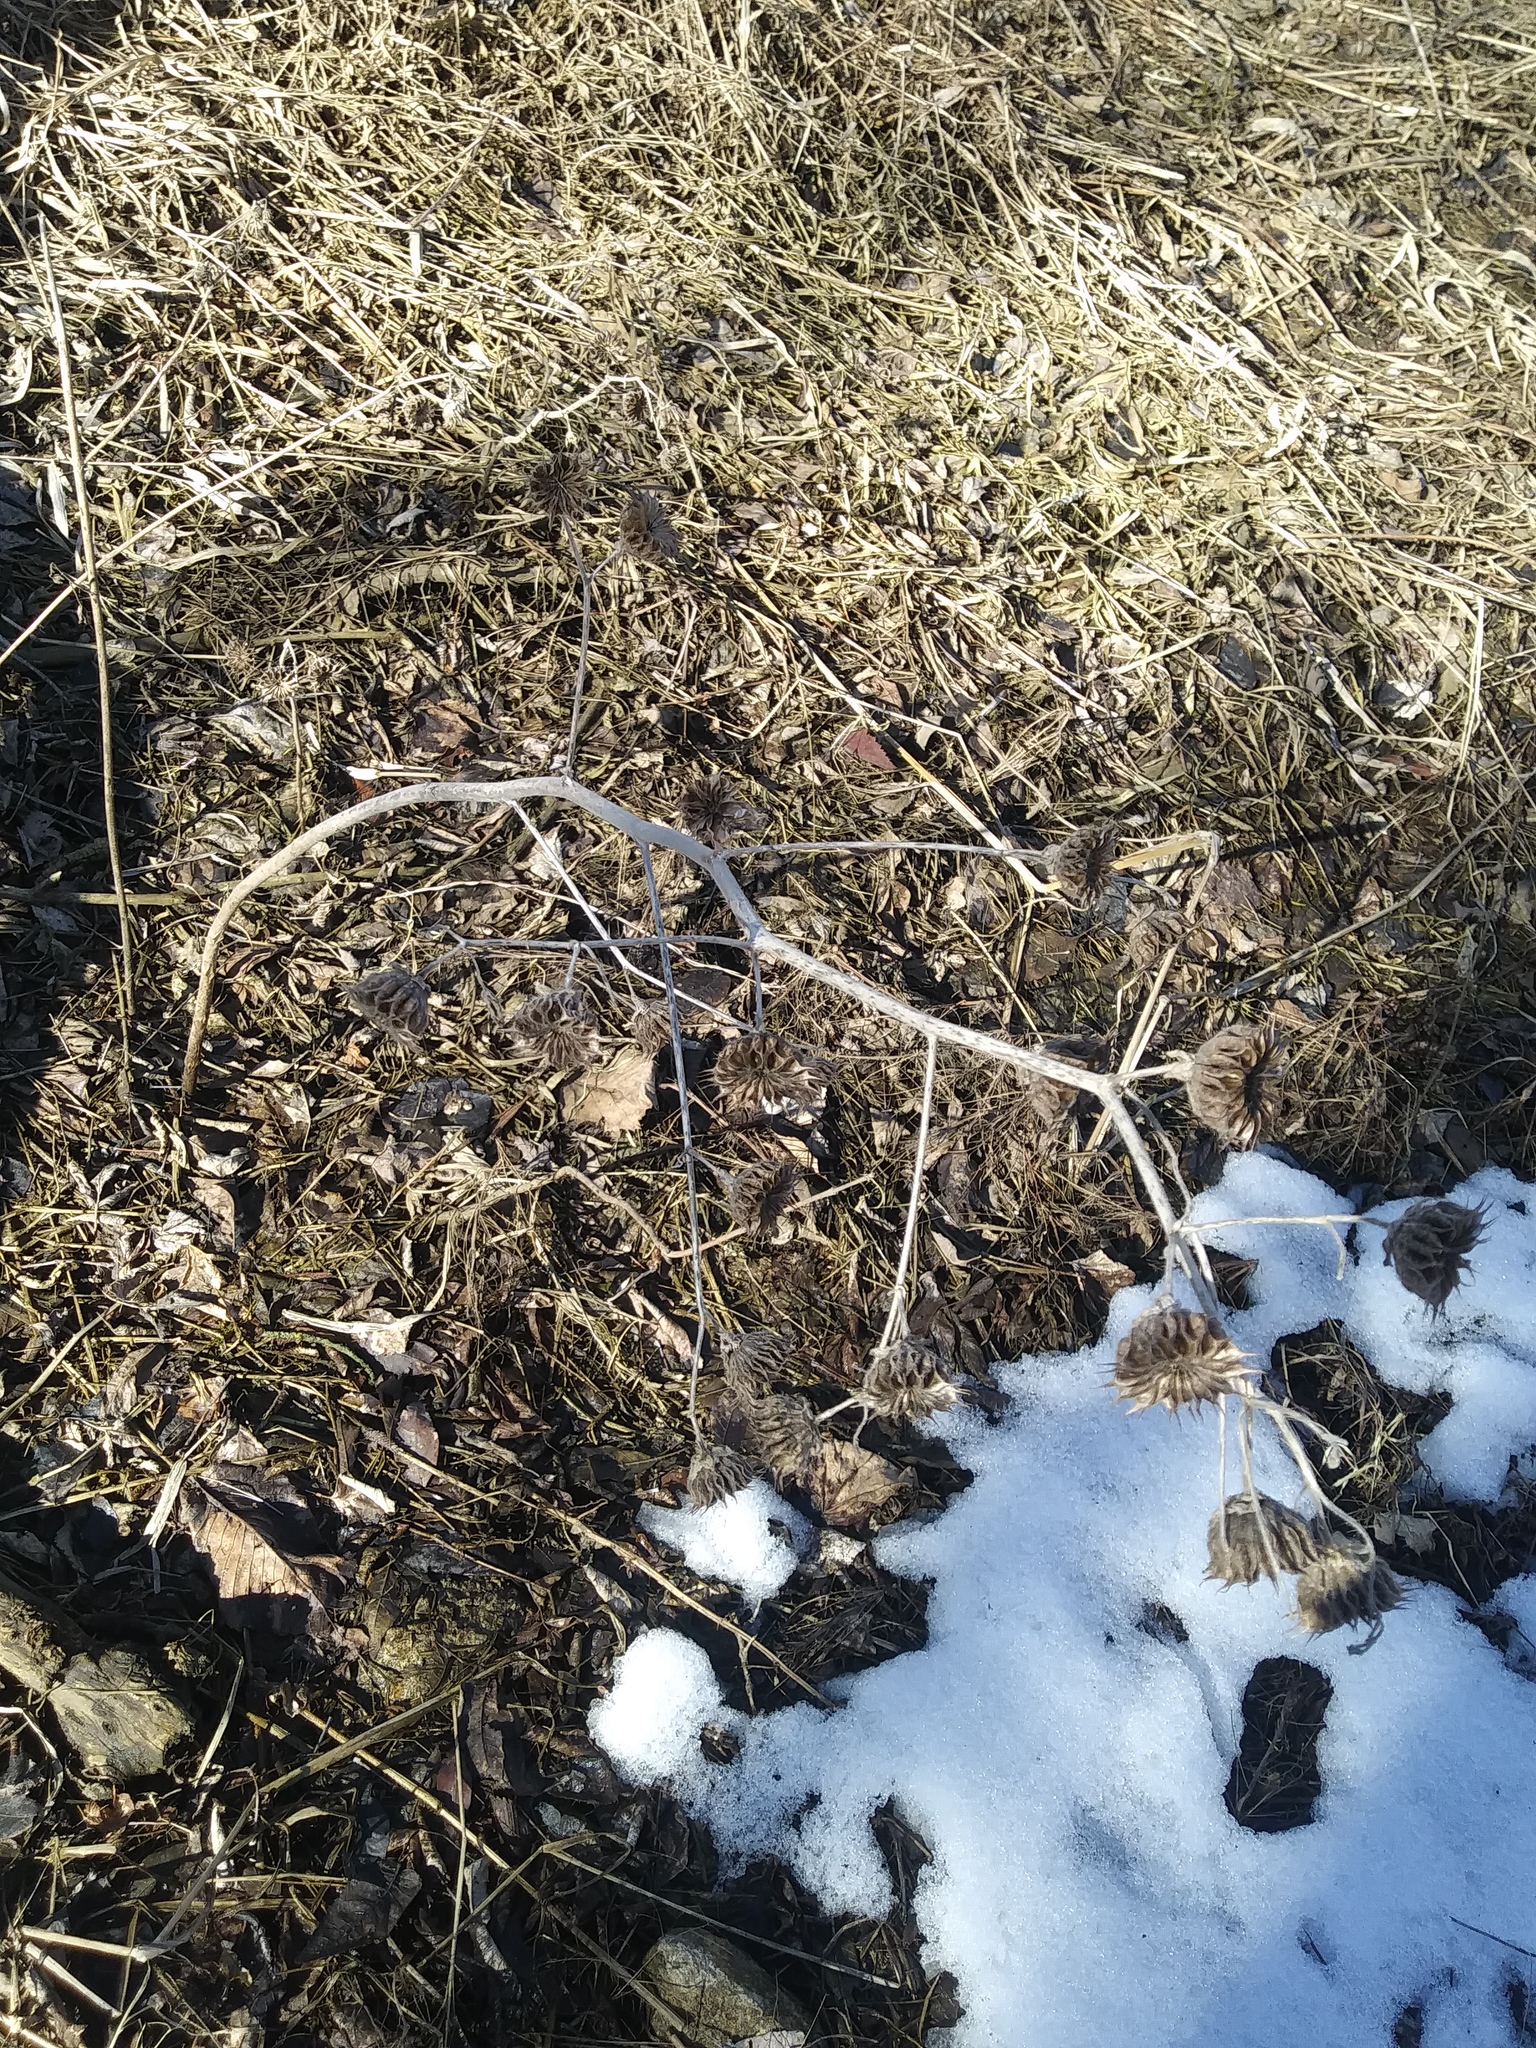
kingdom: Plantae
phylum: Tracheophyta
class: Magnoliopsida
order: Malvales
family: Malvaceae
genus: Abutilon
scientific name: Abutilon theophrasti
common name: Velvetleaf
